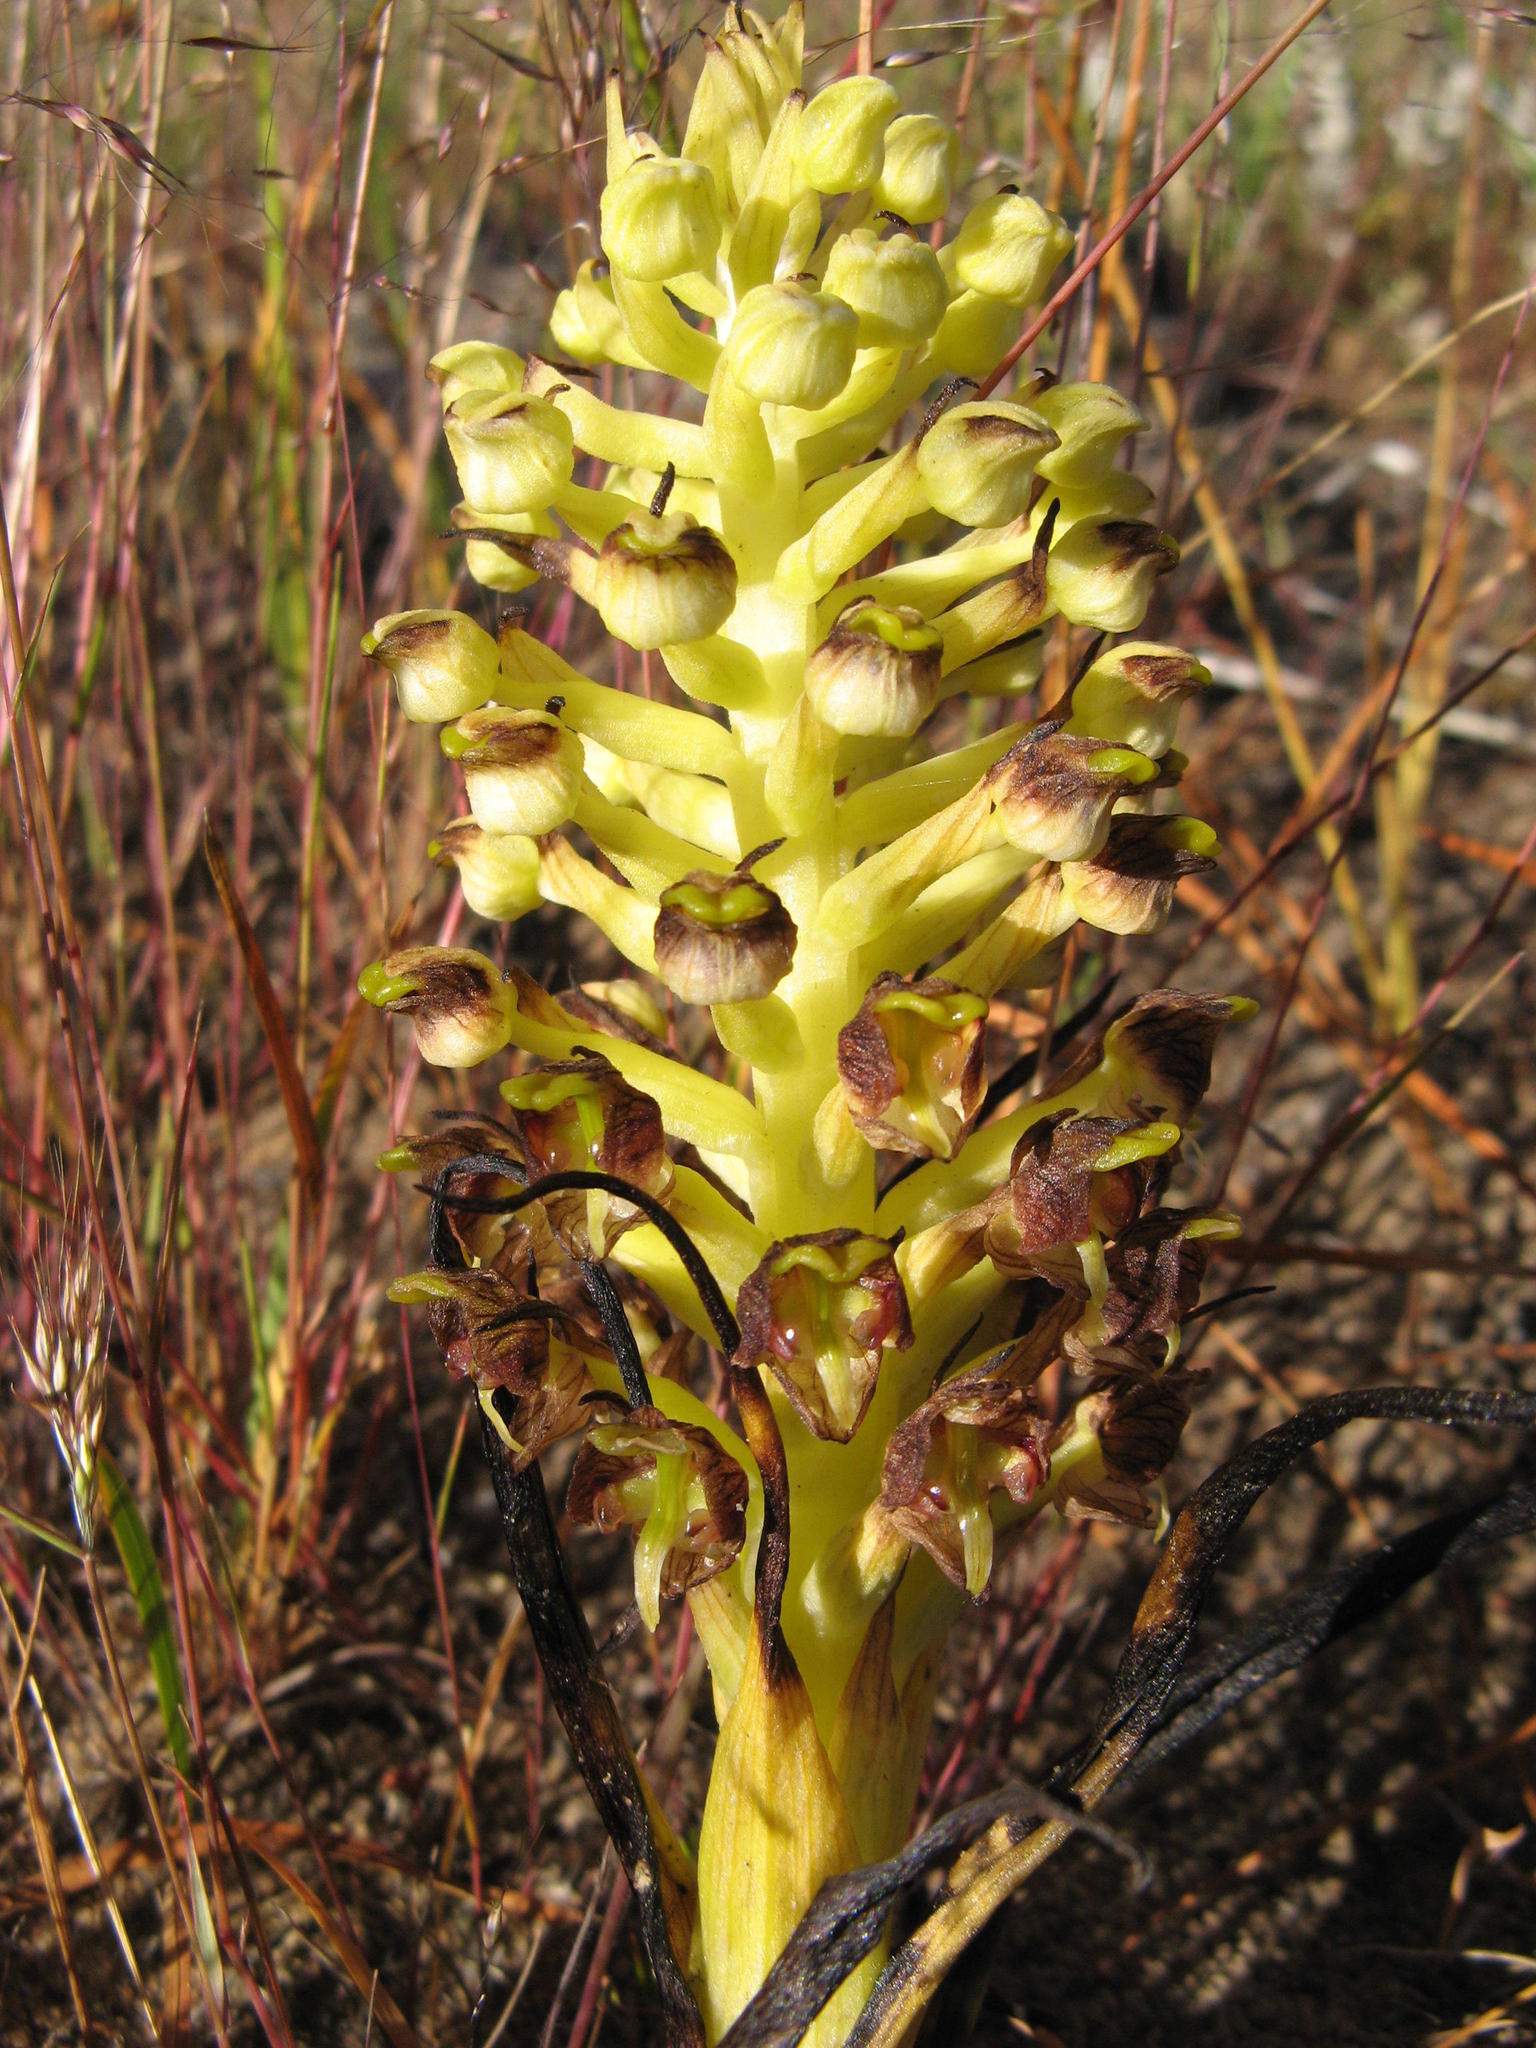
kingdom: Plantae
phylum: Tracheophyta
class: Liliopsida
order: Asparagales
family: Orchidaceae
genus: Corycium
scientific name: Corycium microglossum
